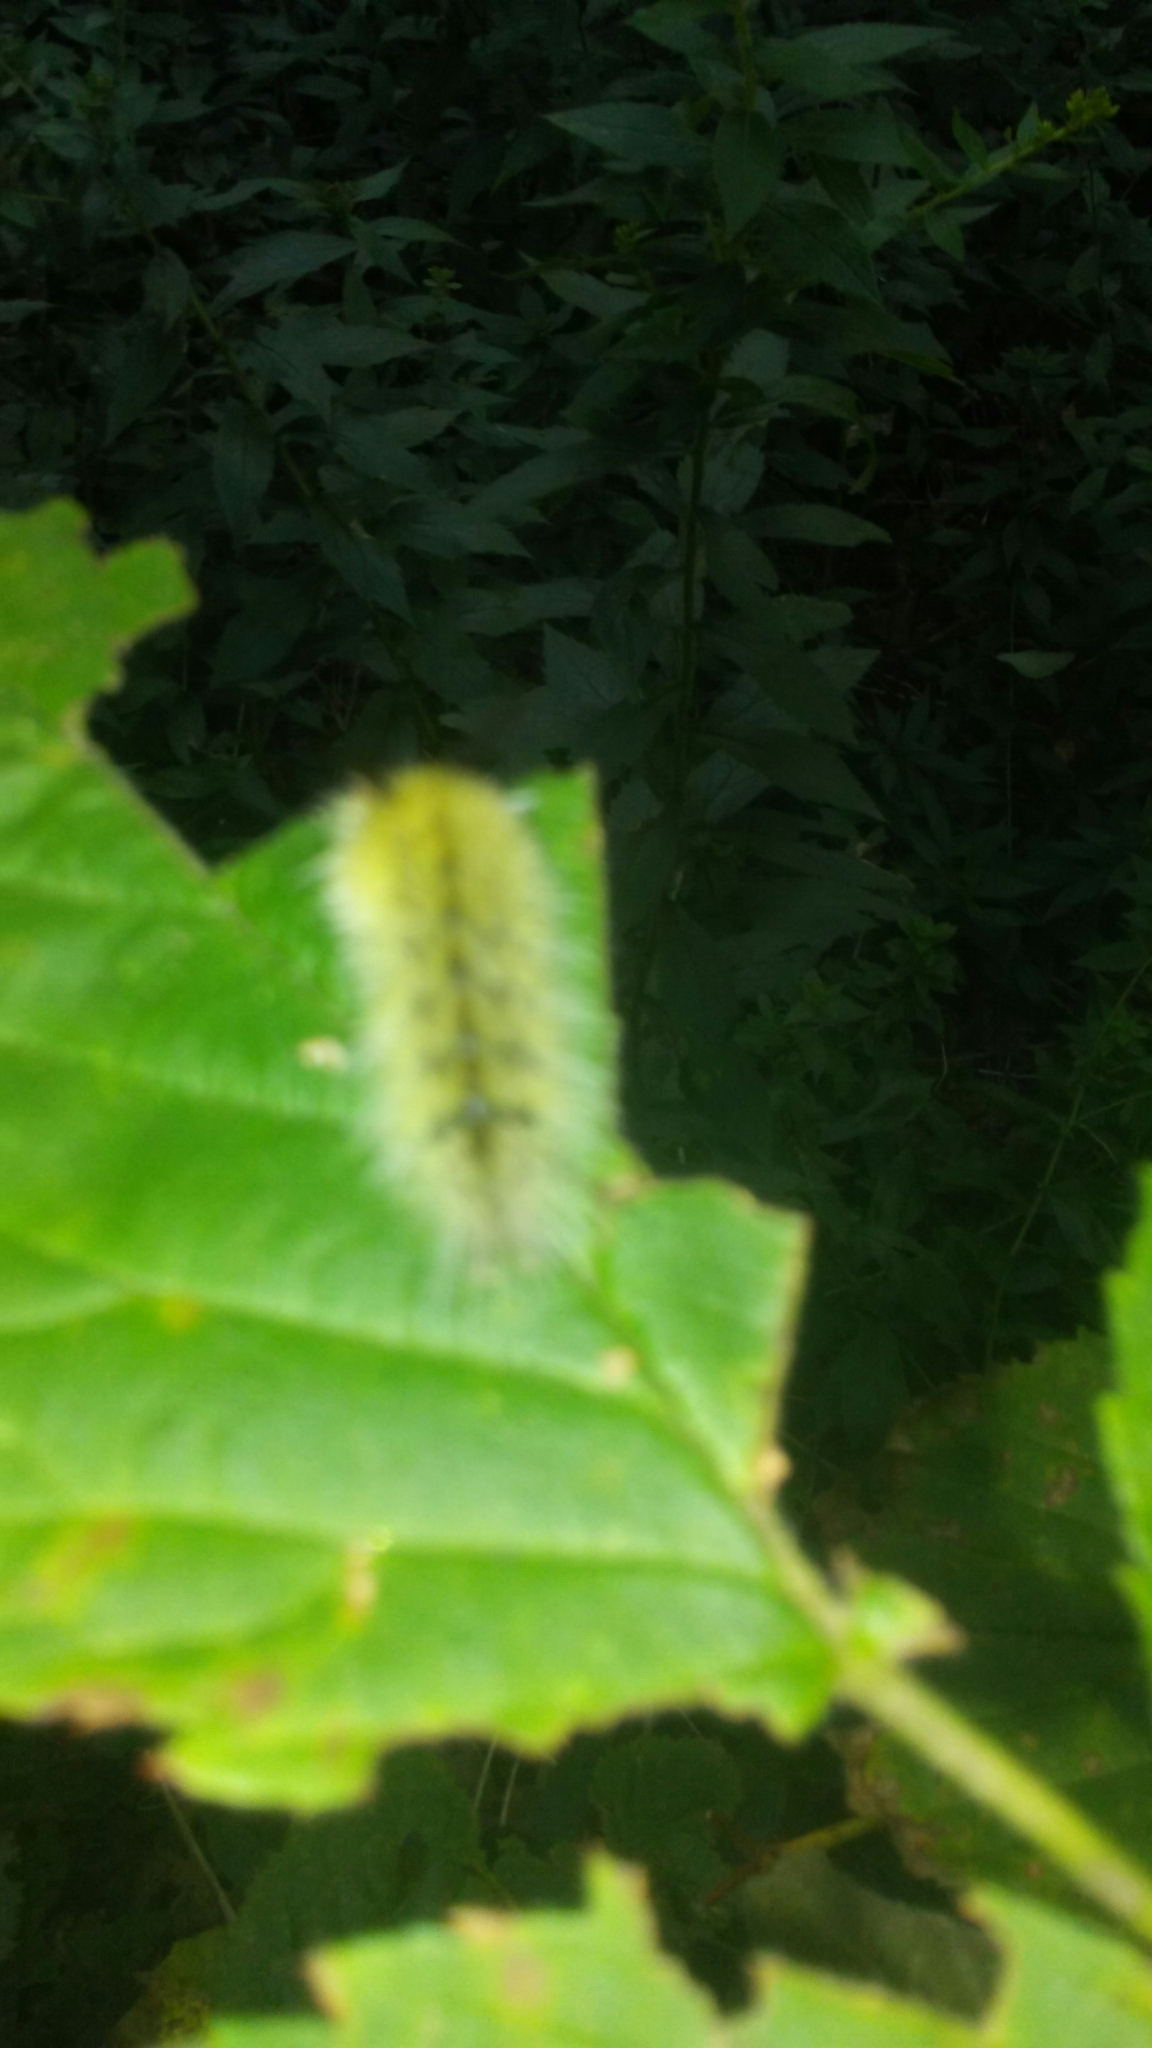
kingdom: Animalia
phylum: Arthropoda
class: Insecta
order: Lepidoptera
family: Noctuidae
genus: Acronicta
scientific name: Acronicta americana
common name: American dagger
